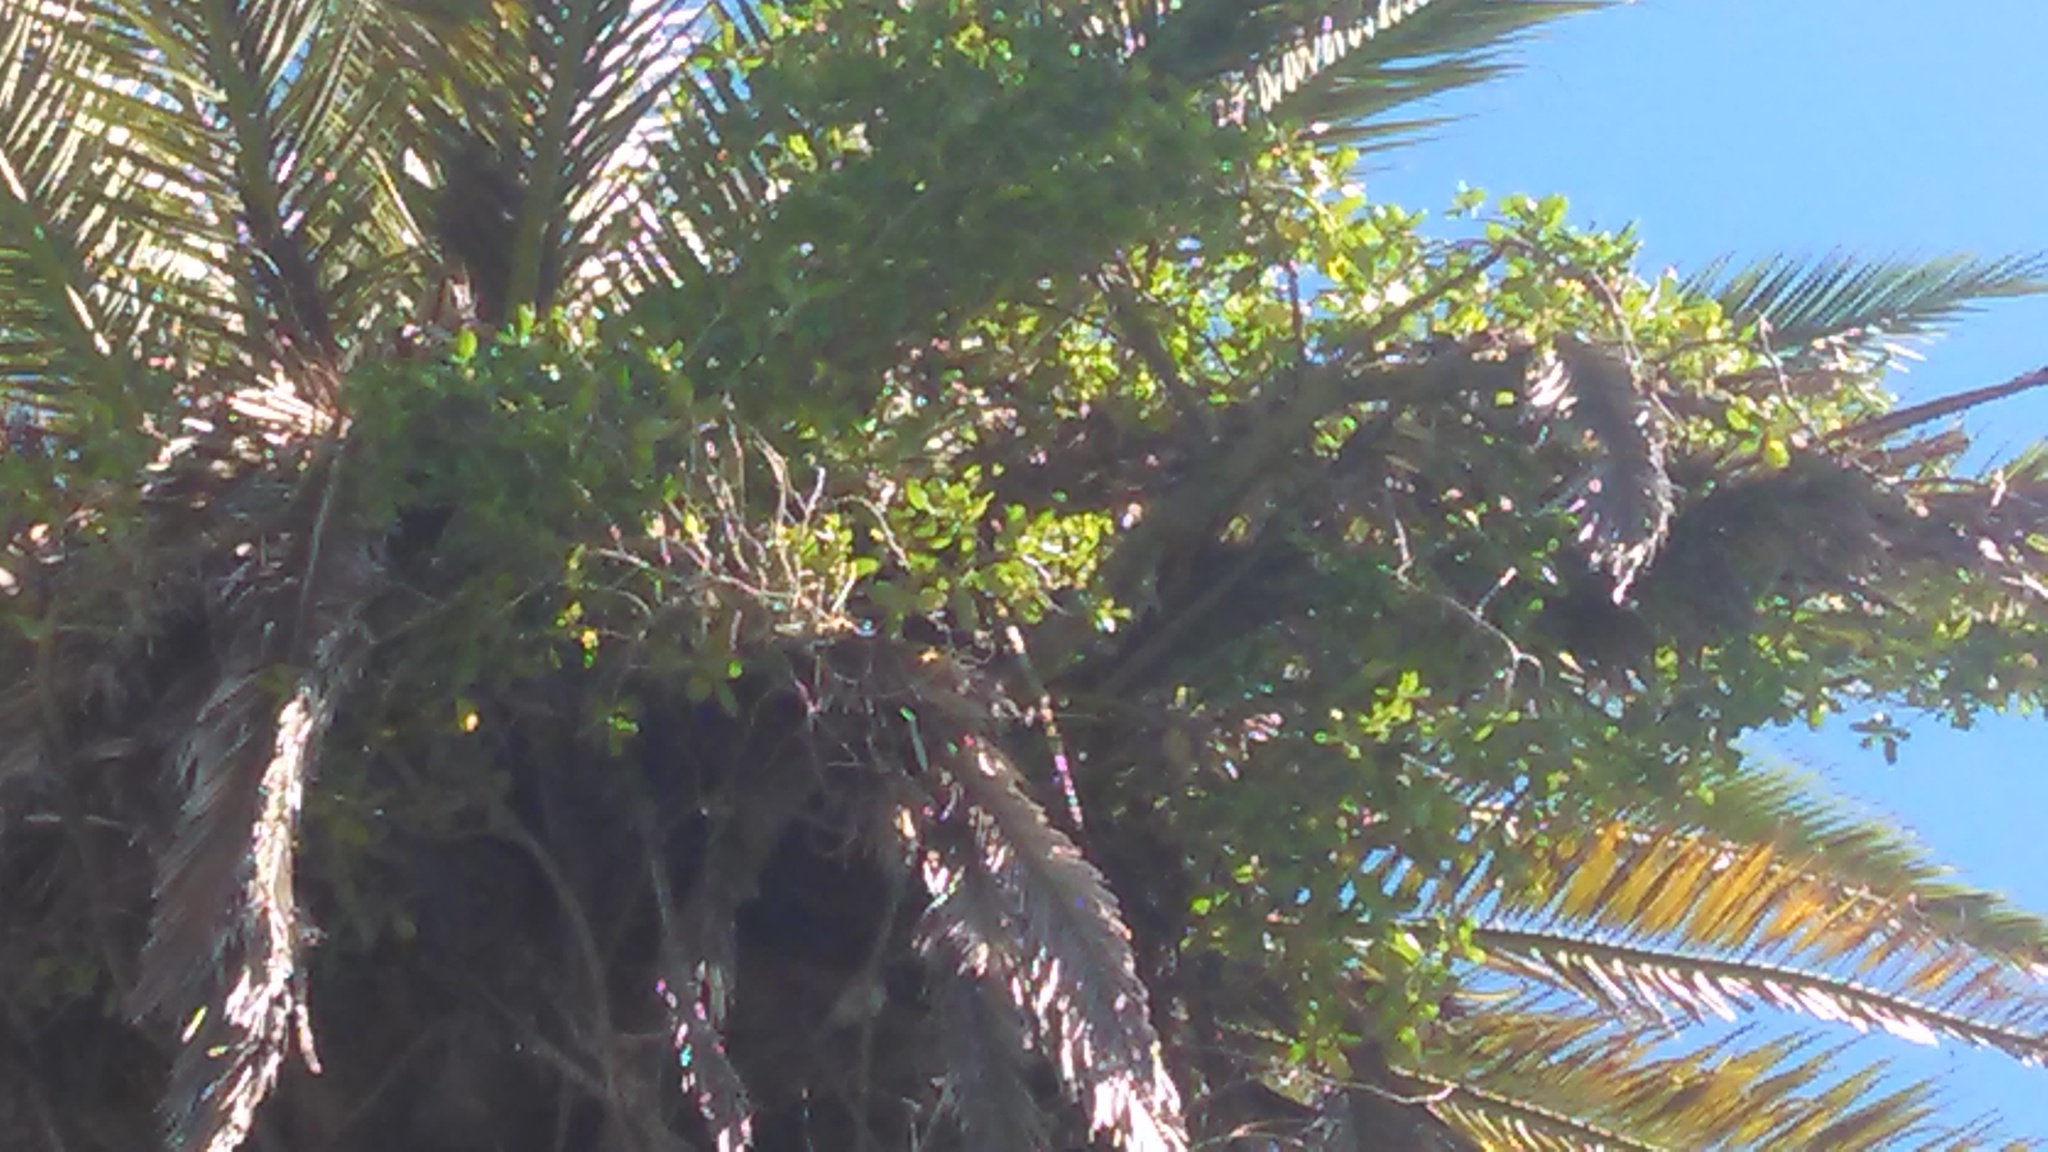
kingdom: Plantae
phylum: Tracheophyta
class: Magnoliopsida
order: Gentianales
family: Rubiaceae
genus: Coprosma
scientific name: Coprosma repens
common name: Tree bedstraw
